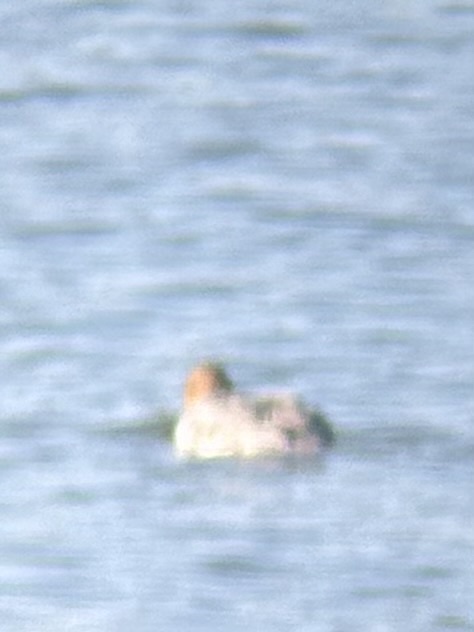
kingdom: Animalia
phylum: Chordata
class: Aves
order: Anseriformes
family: Anatidae
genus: Mergus
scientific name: Mergus serrator
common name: Red-breasted merganser
